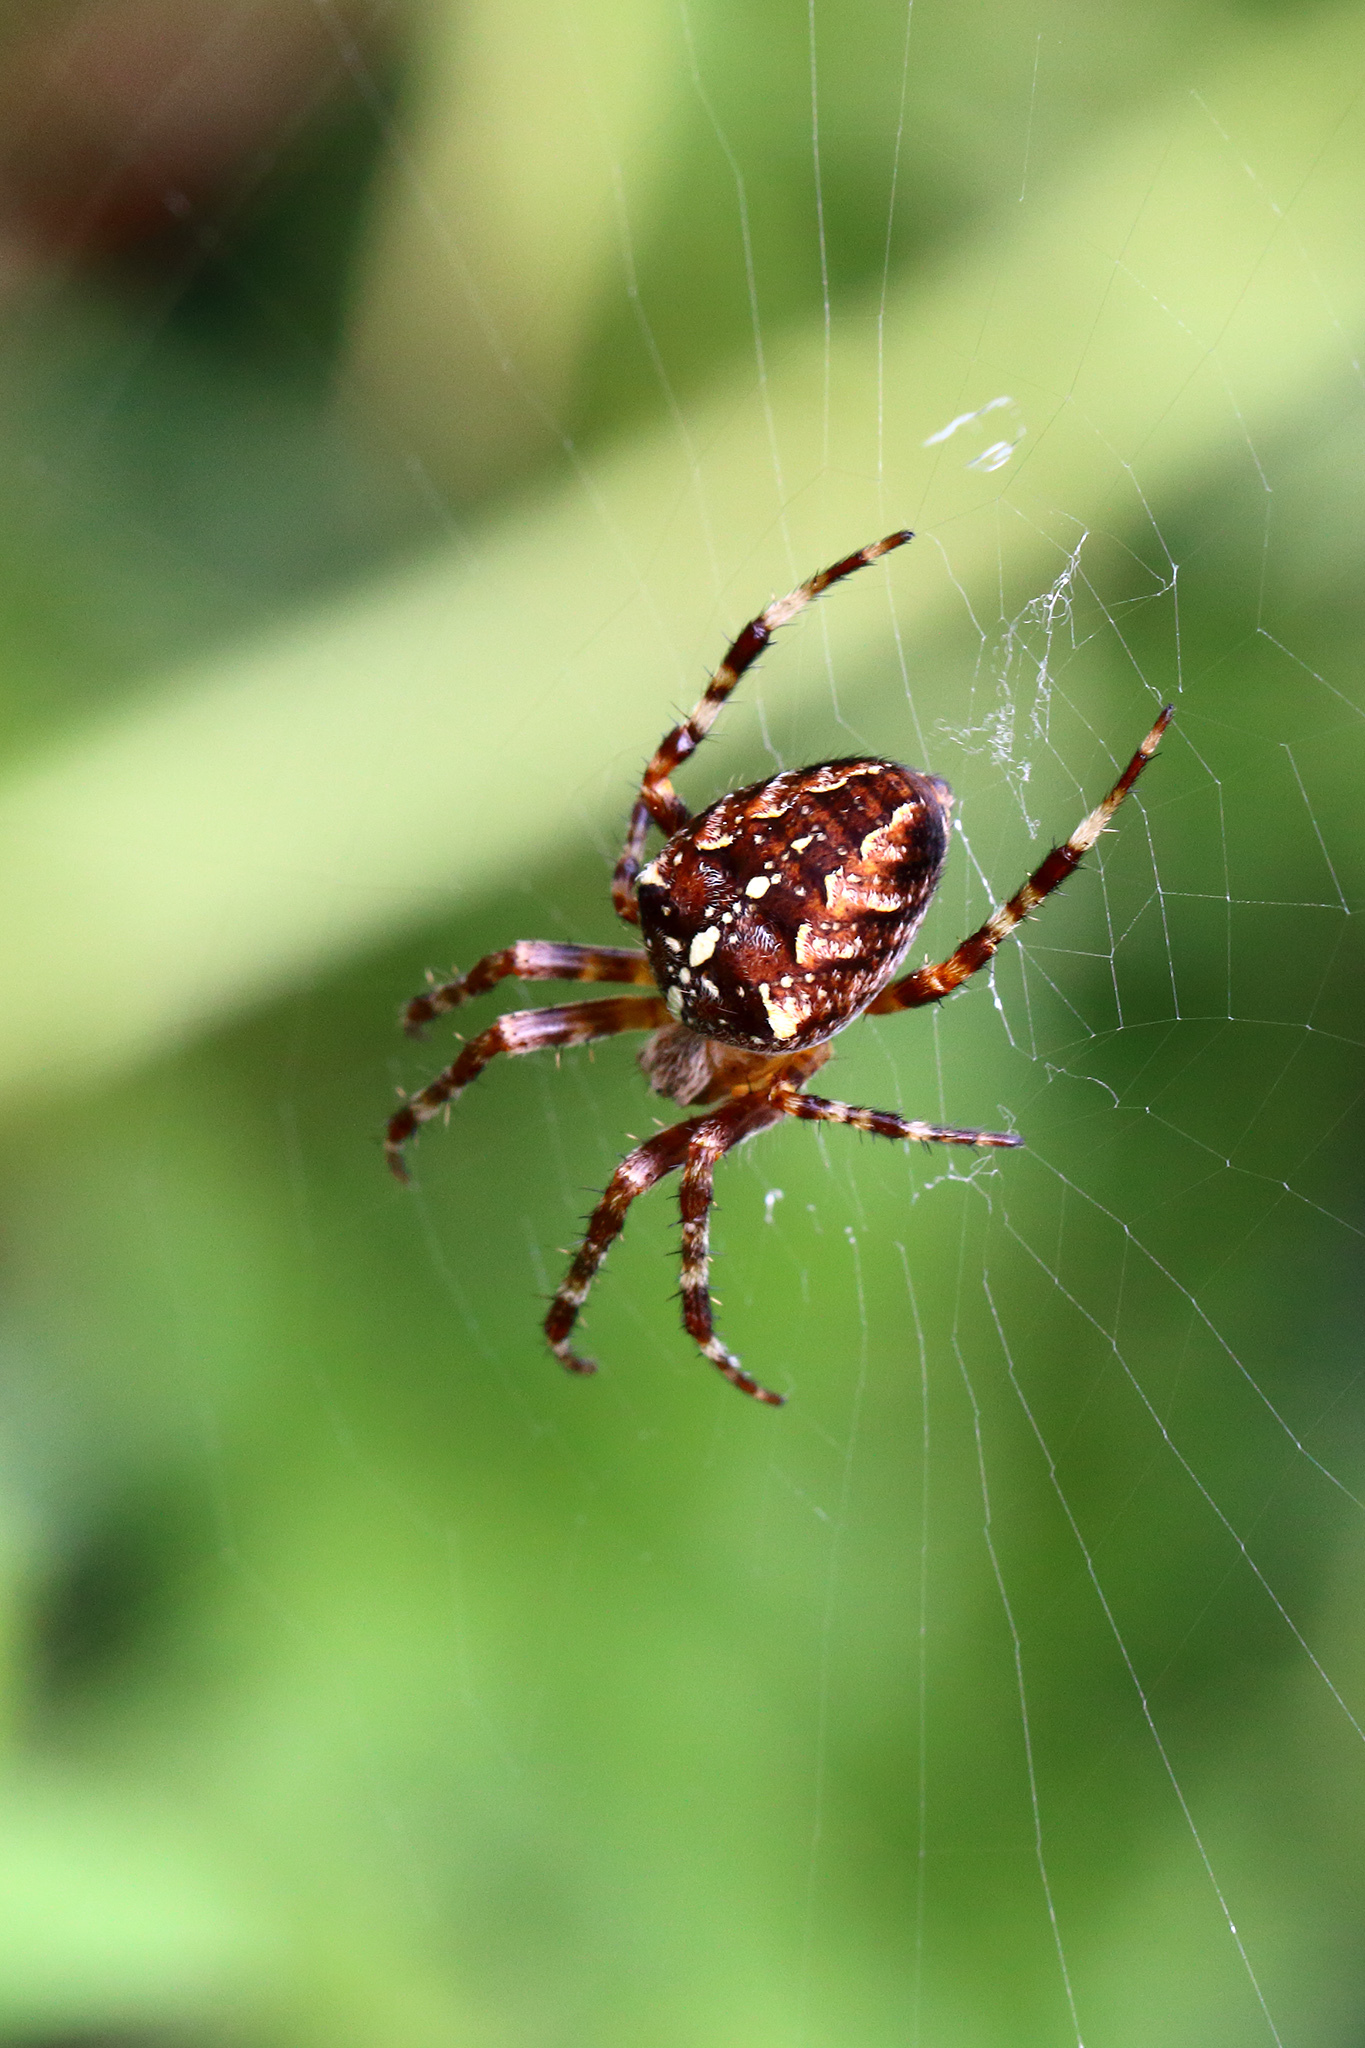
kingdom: Animalia
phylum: Arthropoda
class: Arachnida
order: Araneae
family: Araneidae
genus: Araneus
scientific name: Araneus diadematus
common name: Cross orbweaver
